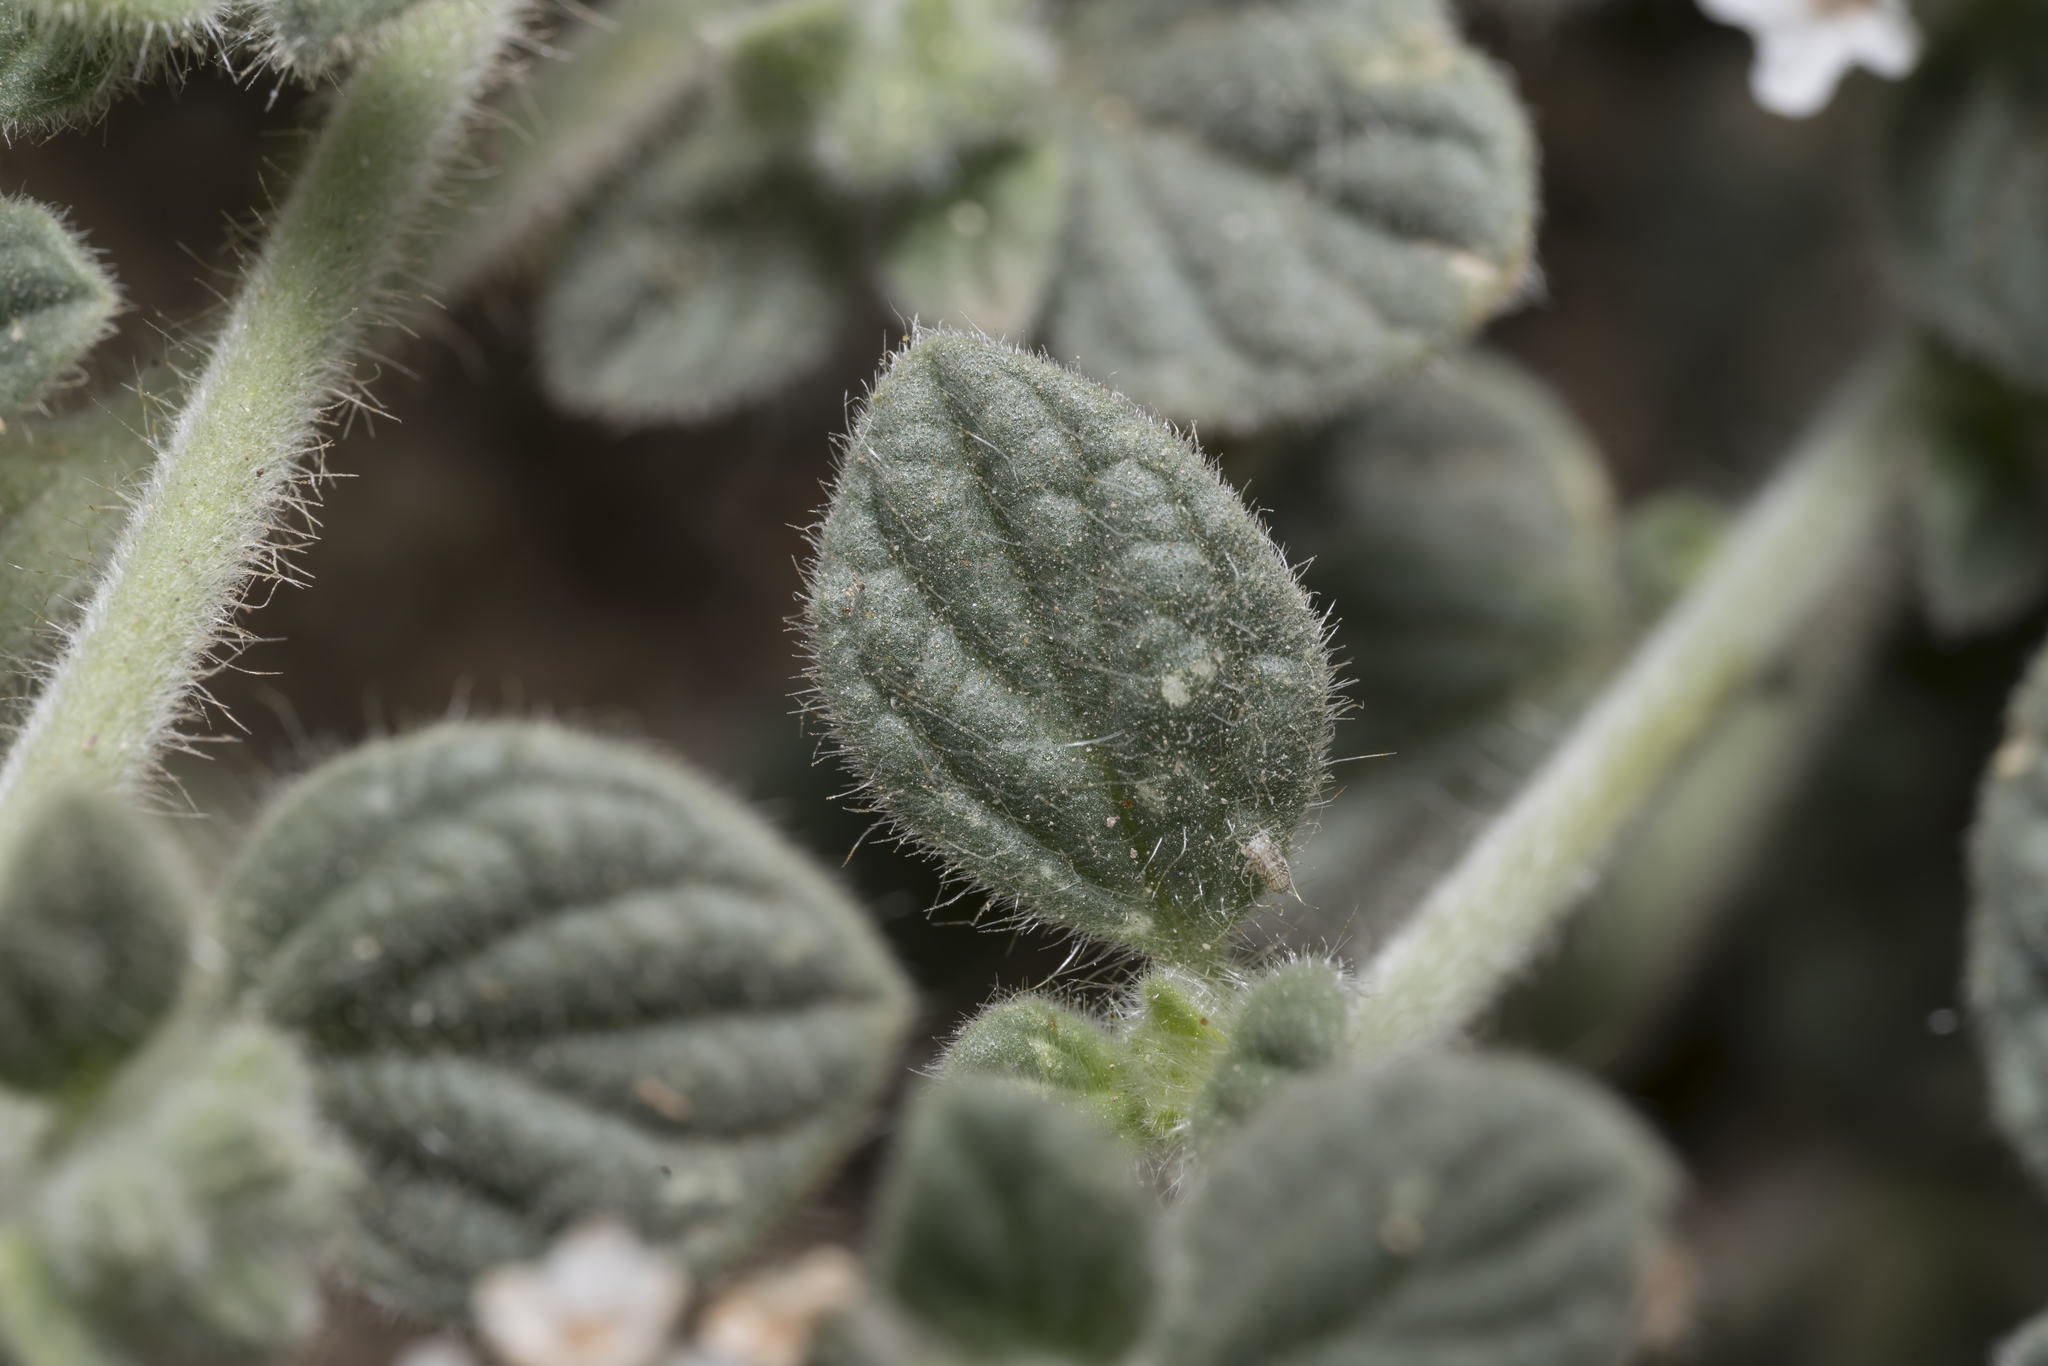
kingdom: Plantae
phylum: Tracheophyta
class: Magnoliopsida
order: Boraginales
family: Heliotropiaceae
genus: Heliotropium
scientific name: Heliotropium hirsutissimum
